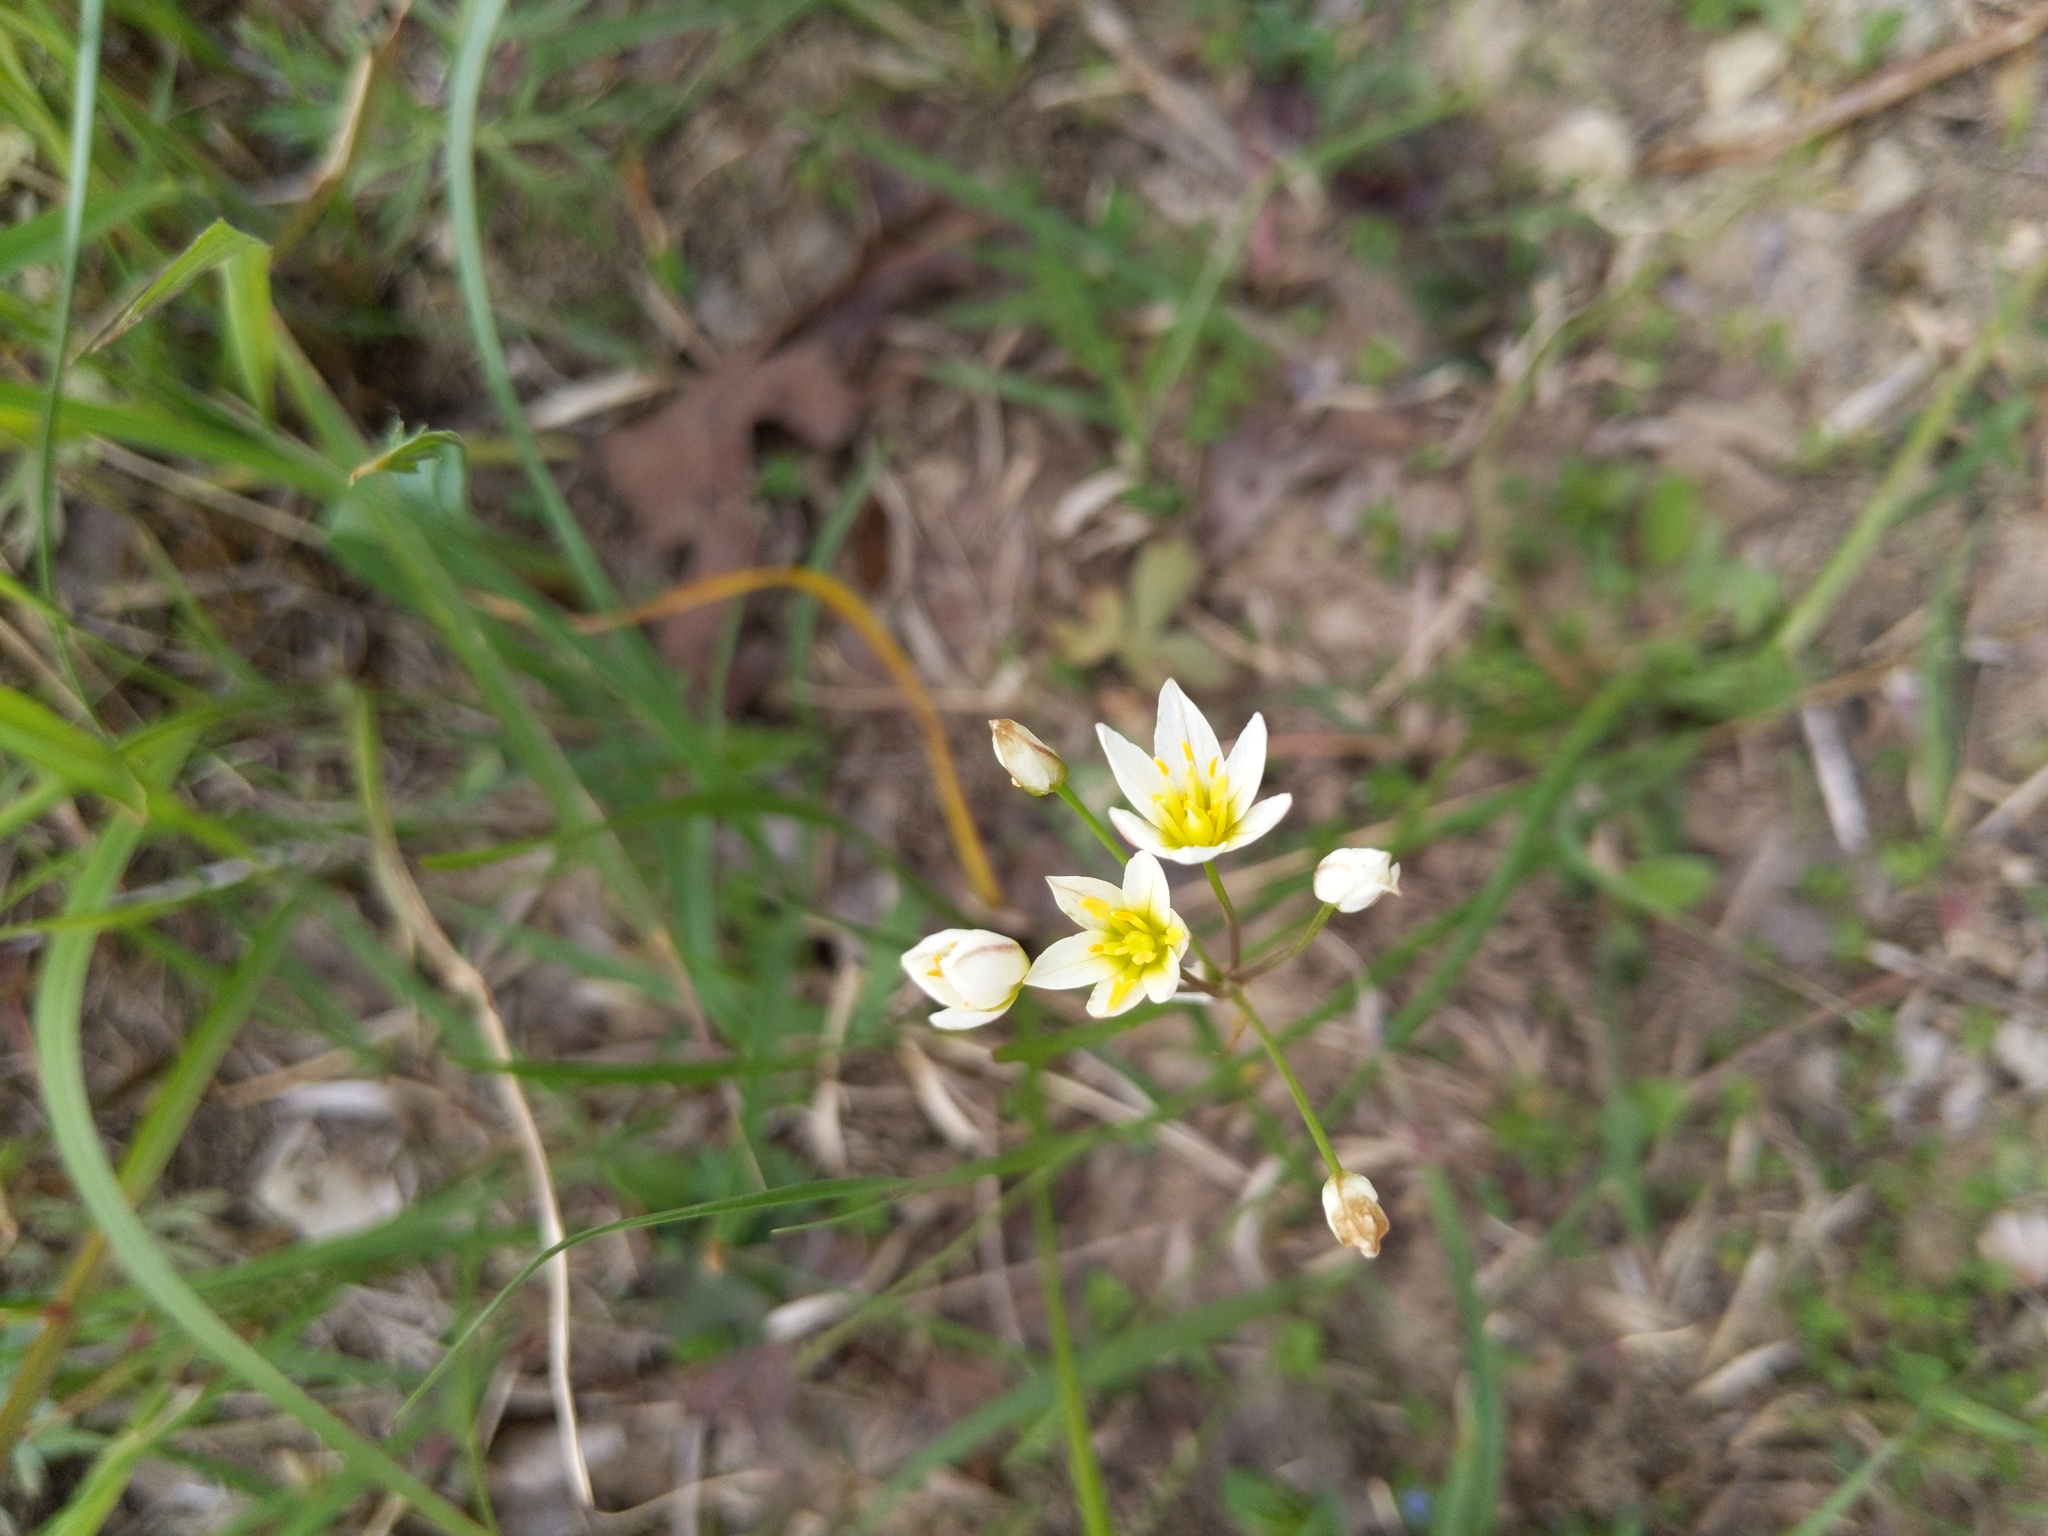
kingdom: Plantae
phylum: Tracheophyta
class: Liliopsida
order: Asparagales
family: Amaryllidaceae
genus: Nothoscordum
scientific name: Nothoscordum bivalve
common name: Crow-poison
